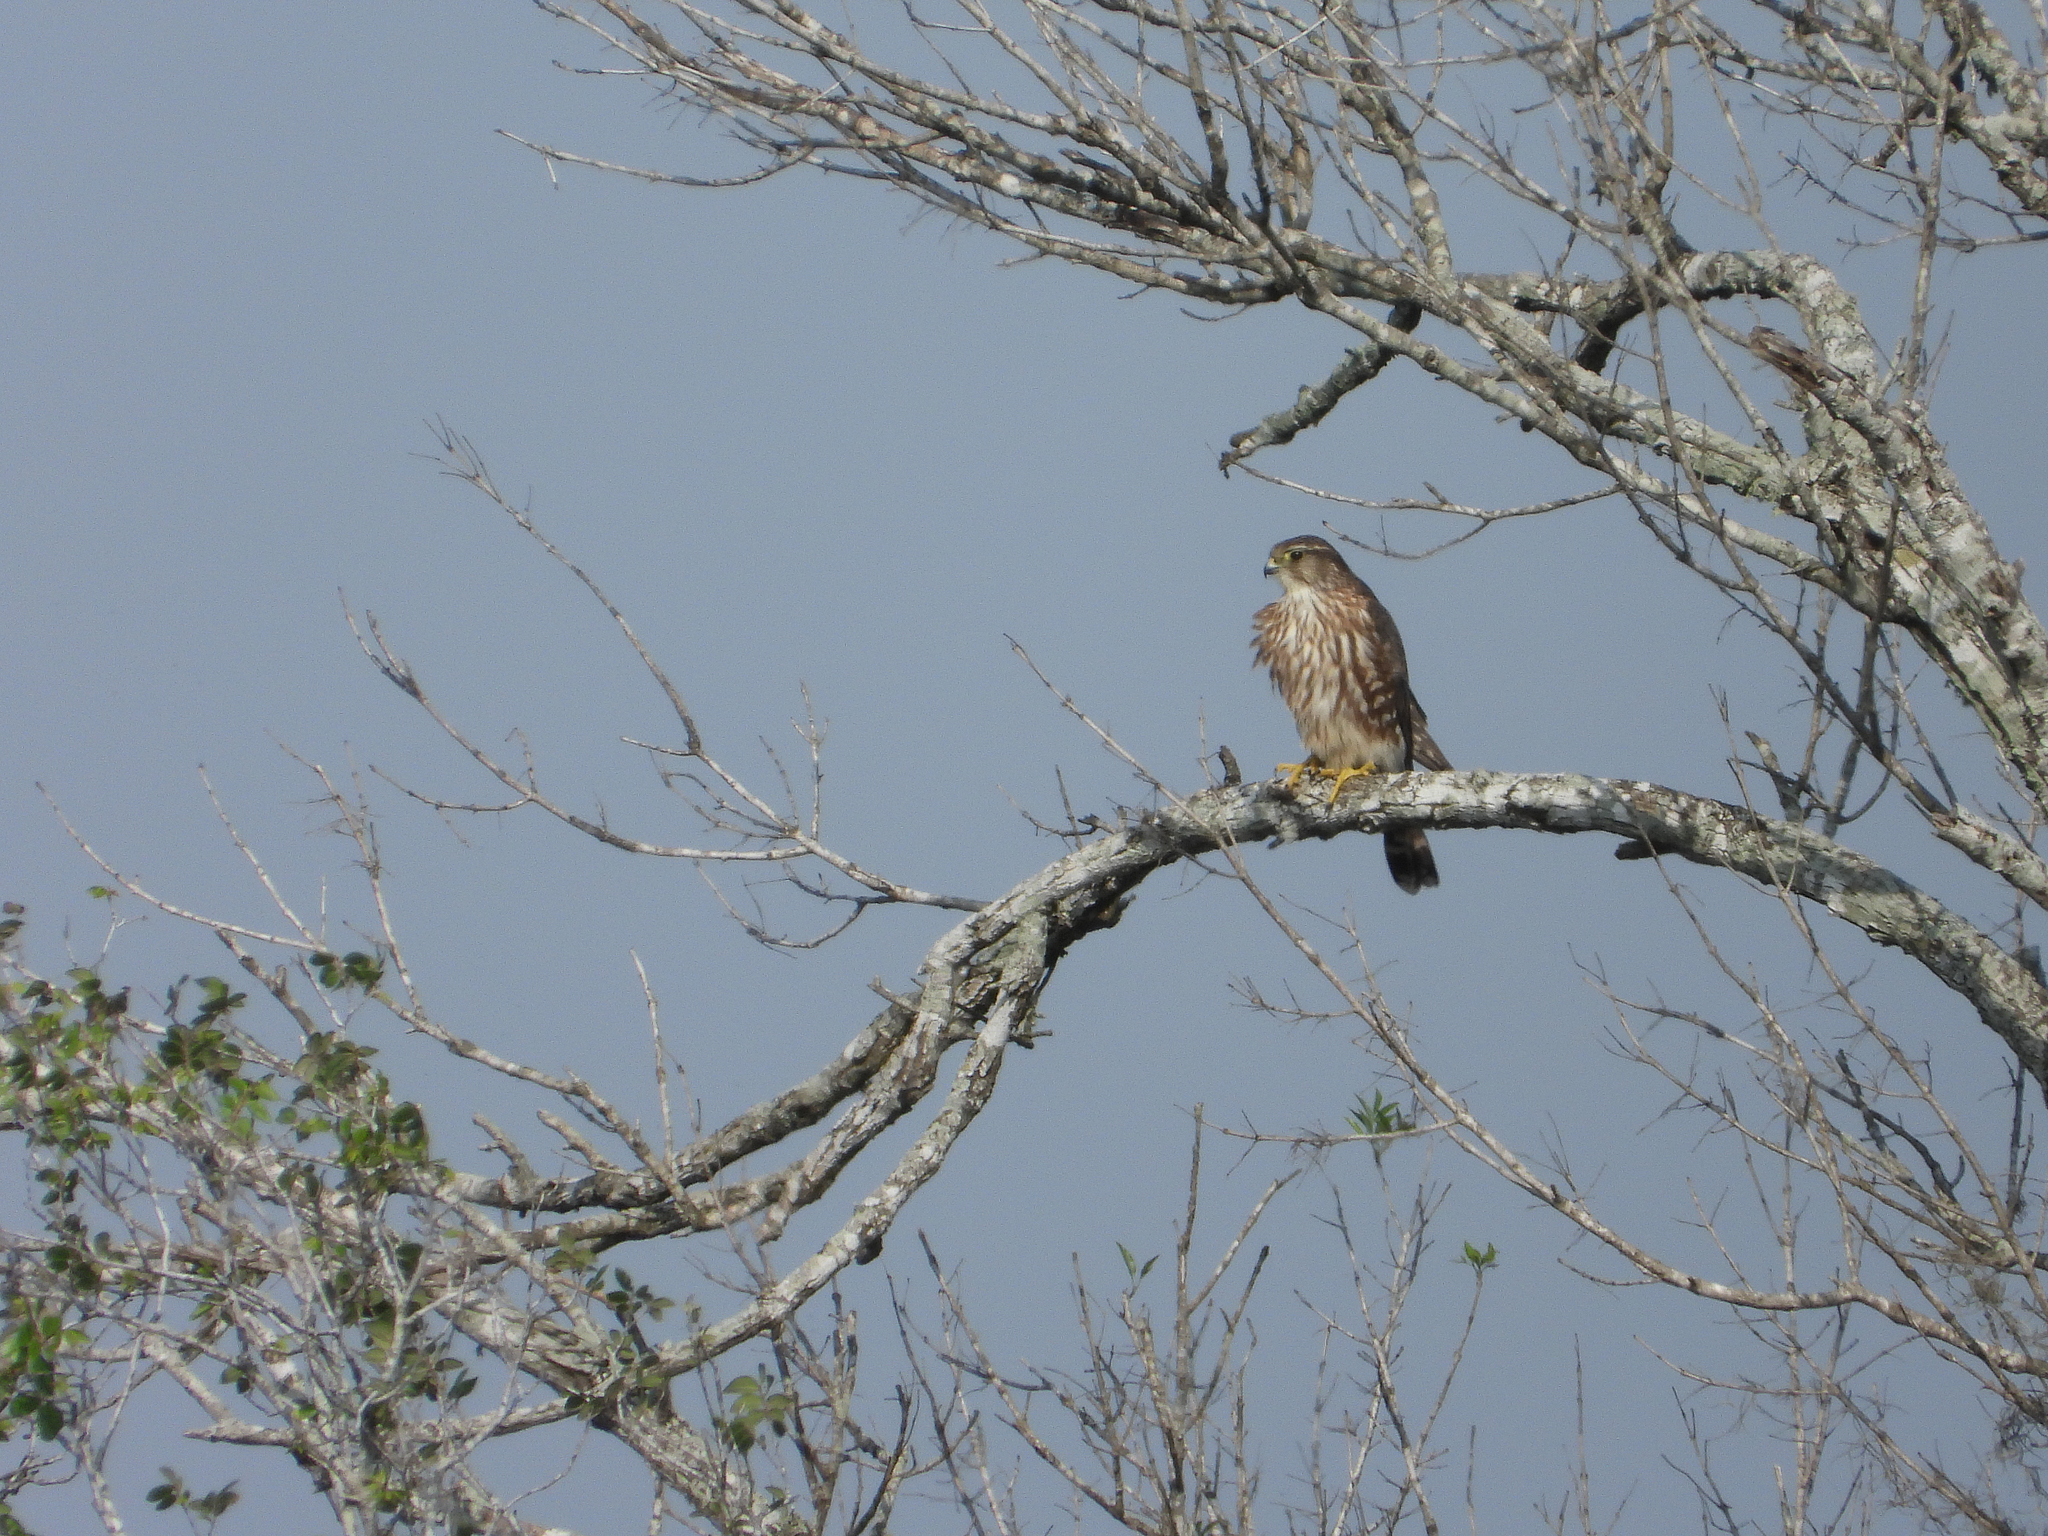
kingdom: Animalia
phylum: Chordata
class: Aves
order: Falconiformes
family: Falconidae
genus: Falco
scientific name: Falco columbarius
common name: Merlin
